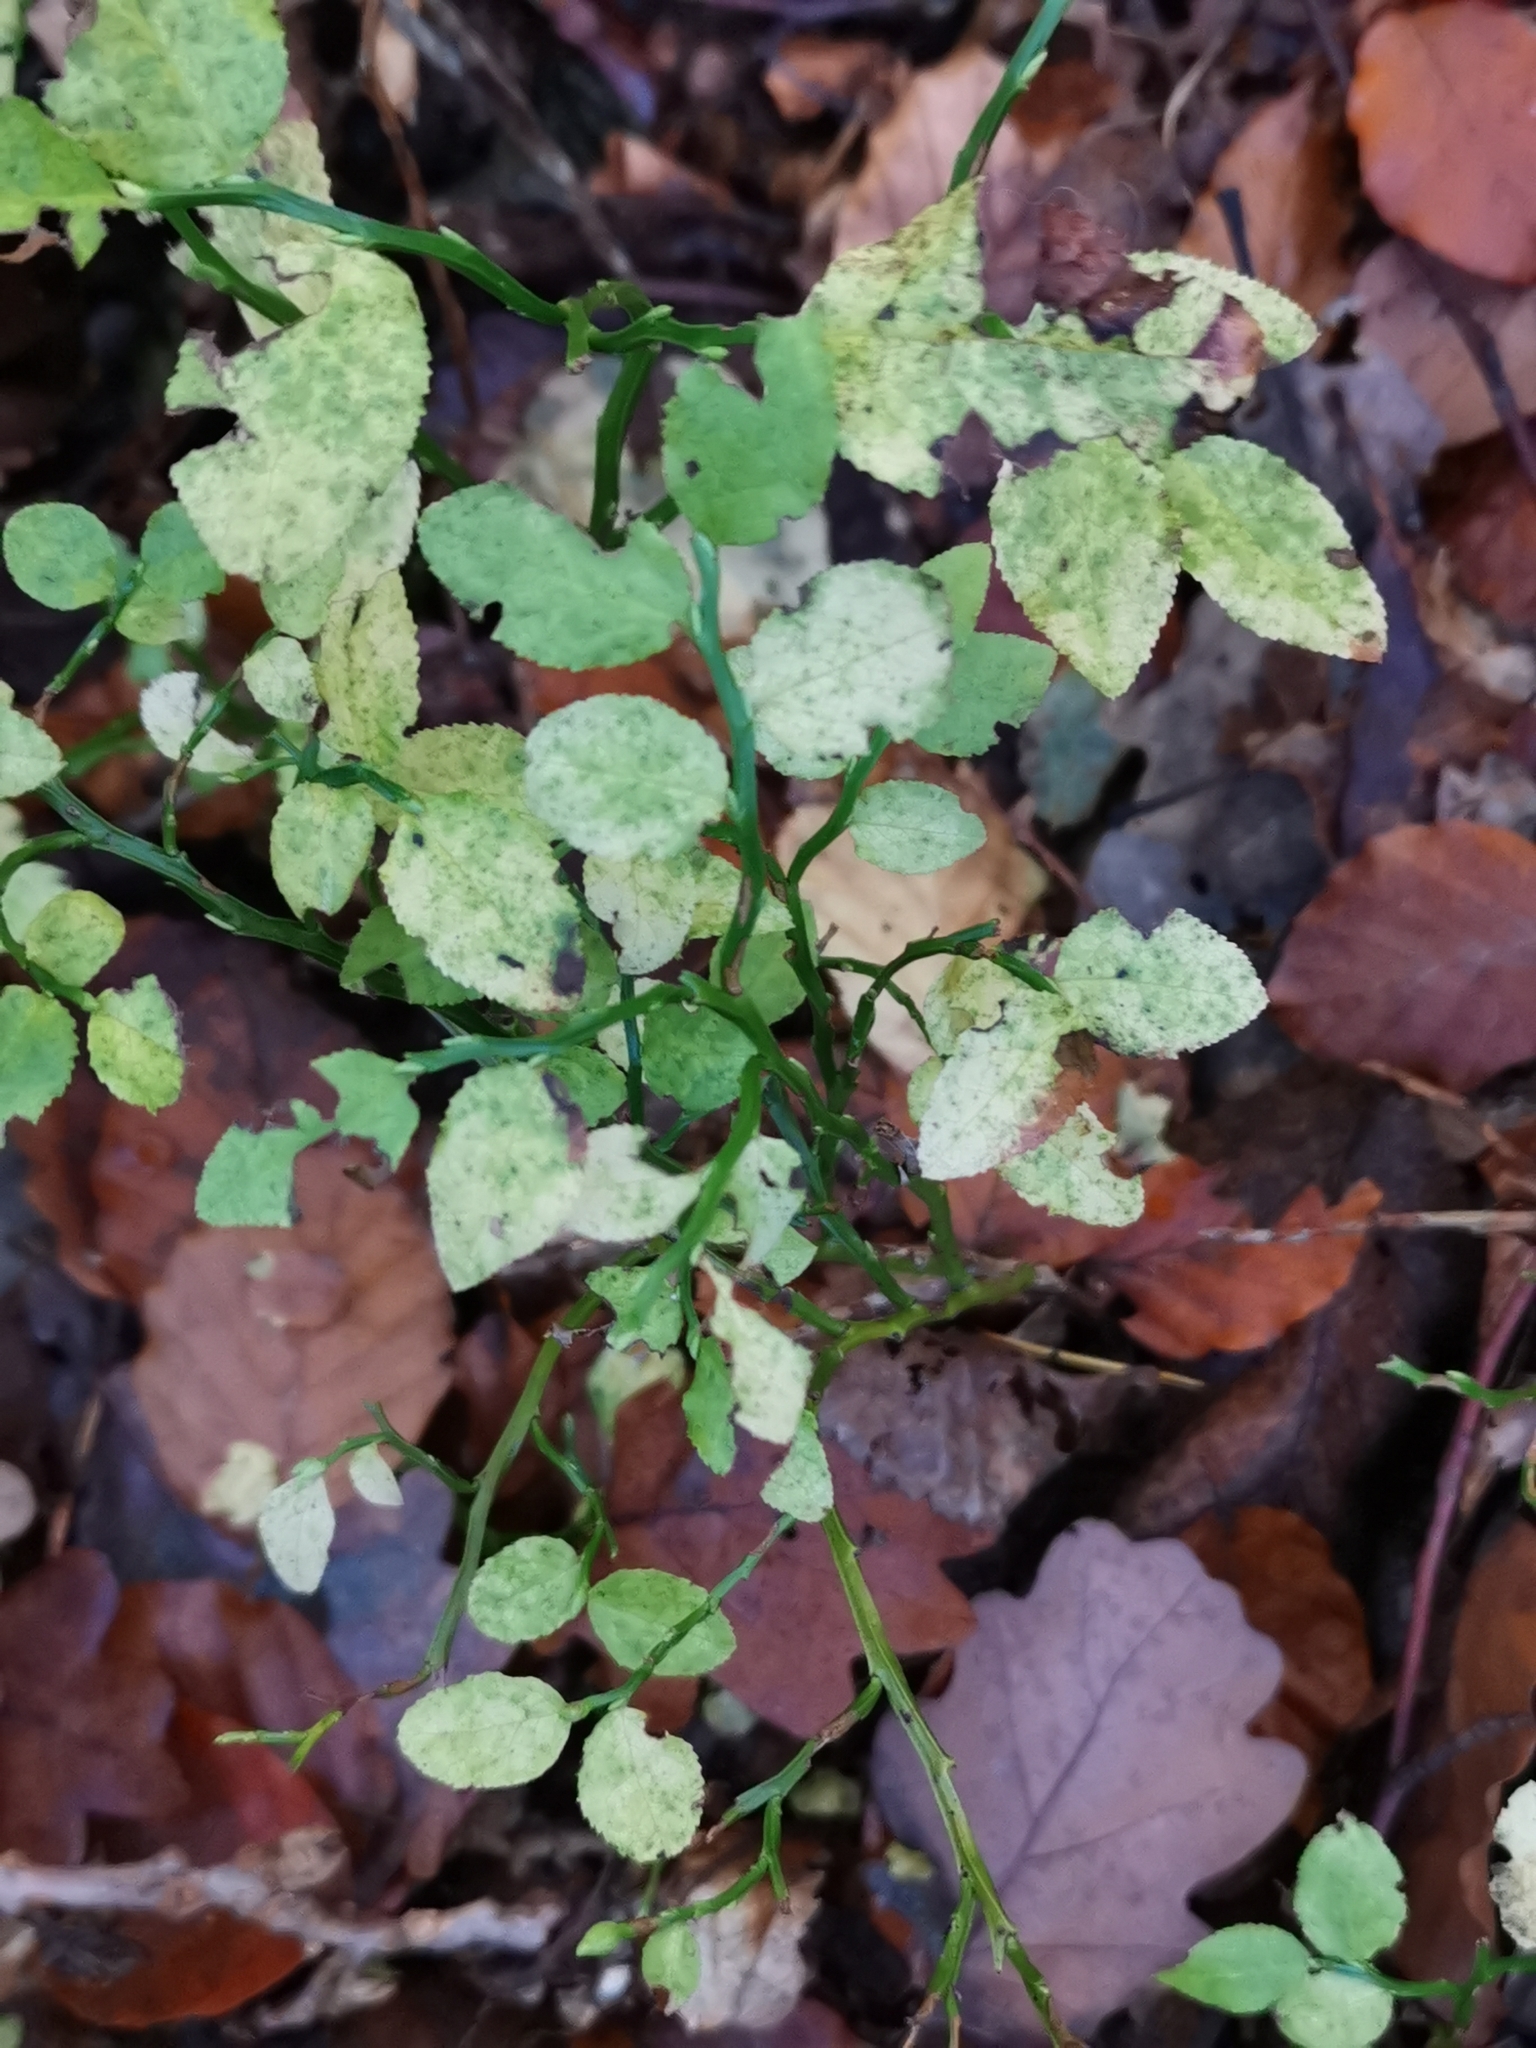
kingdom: Plantae
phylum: Tracheophyta
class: Magnoliopsida
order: Ericales
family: Ericaceae
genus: Vaccinium
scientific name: Vaccinium myrtillus
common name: Bilberry
